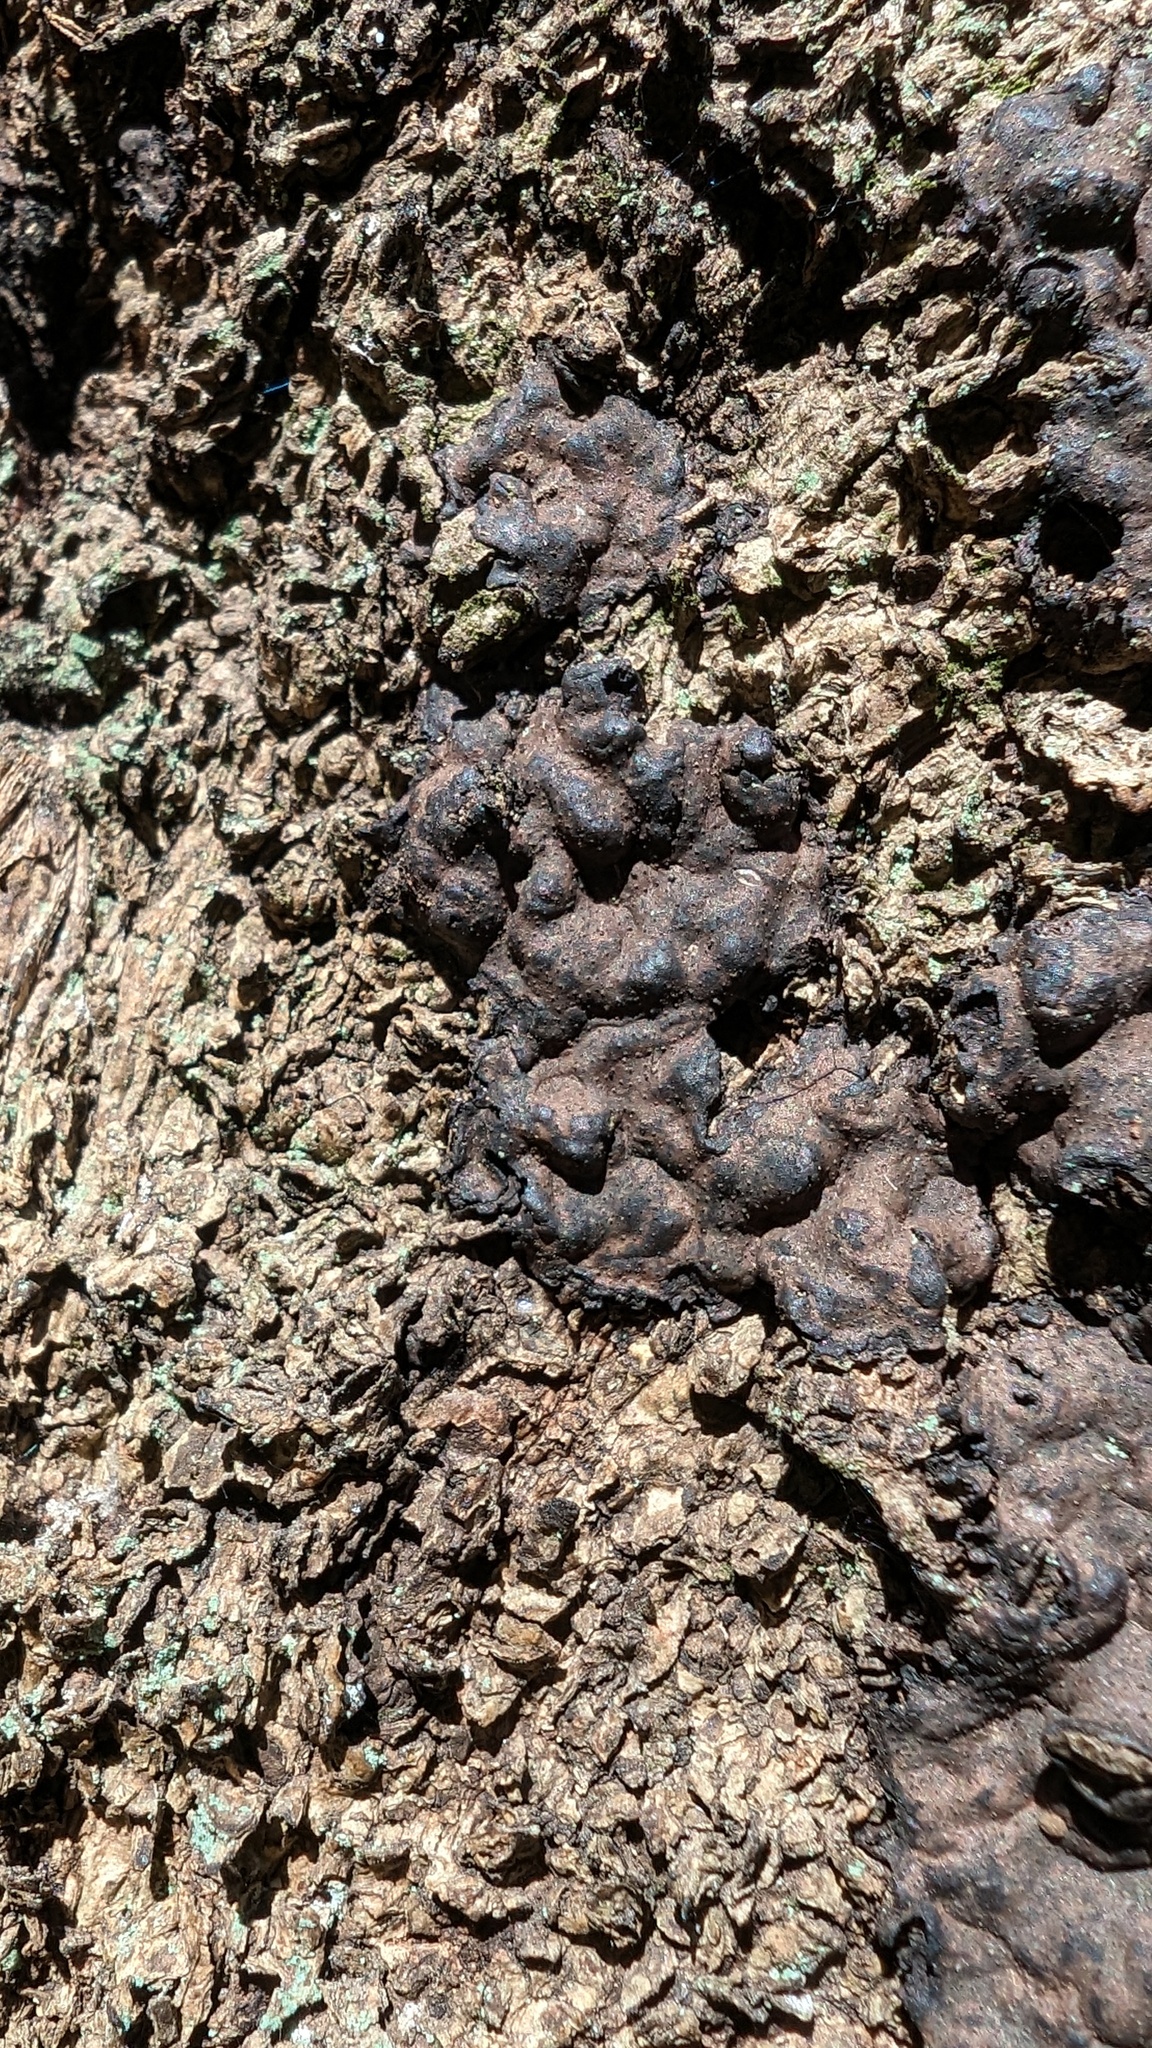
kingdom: Fungi
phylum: Ascomycota
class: Sordariomycetes
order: Xylariales
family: Xylariaceae
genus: Kretzschmaria
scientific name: Kretzschmaria deusta
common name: Brittle cinder
